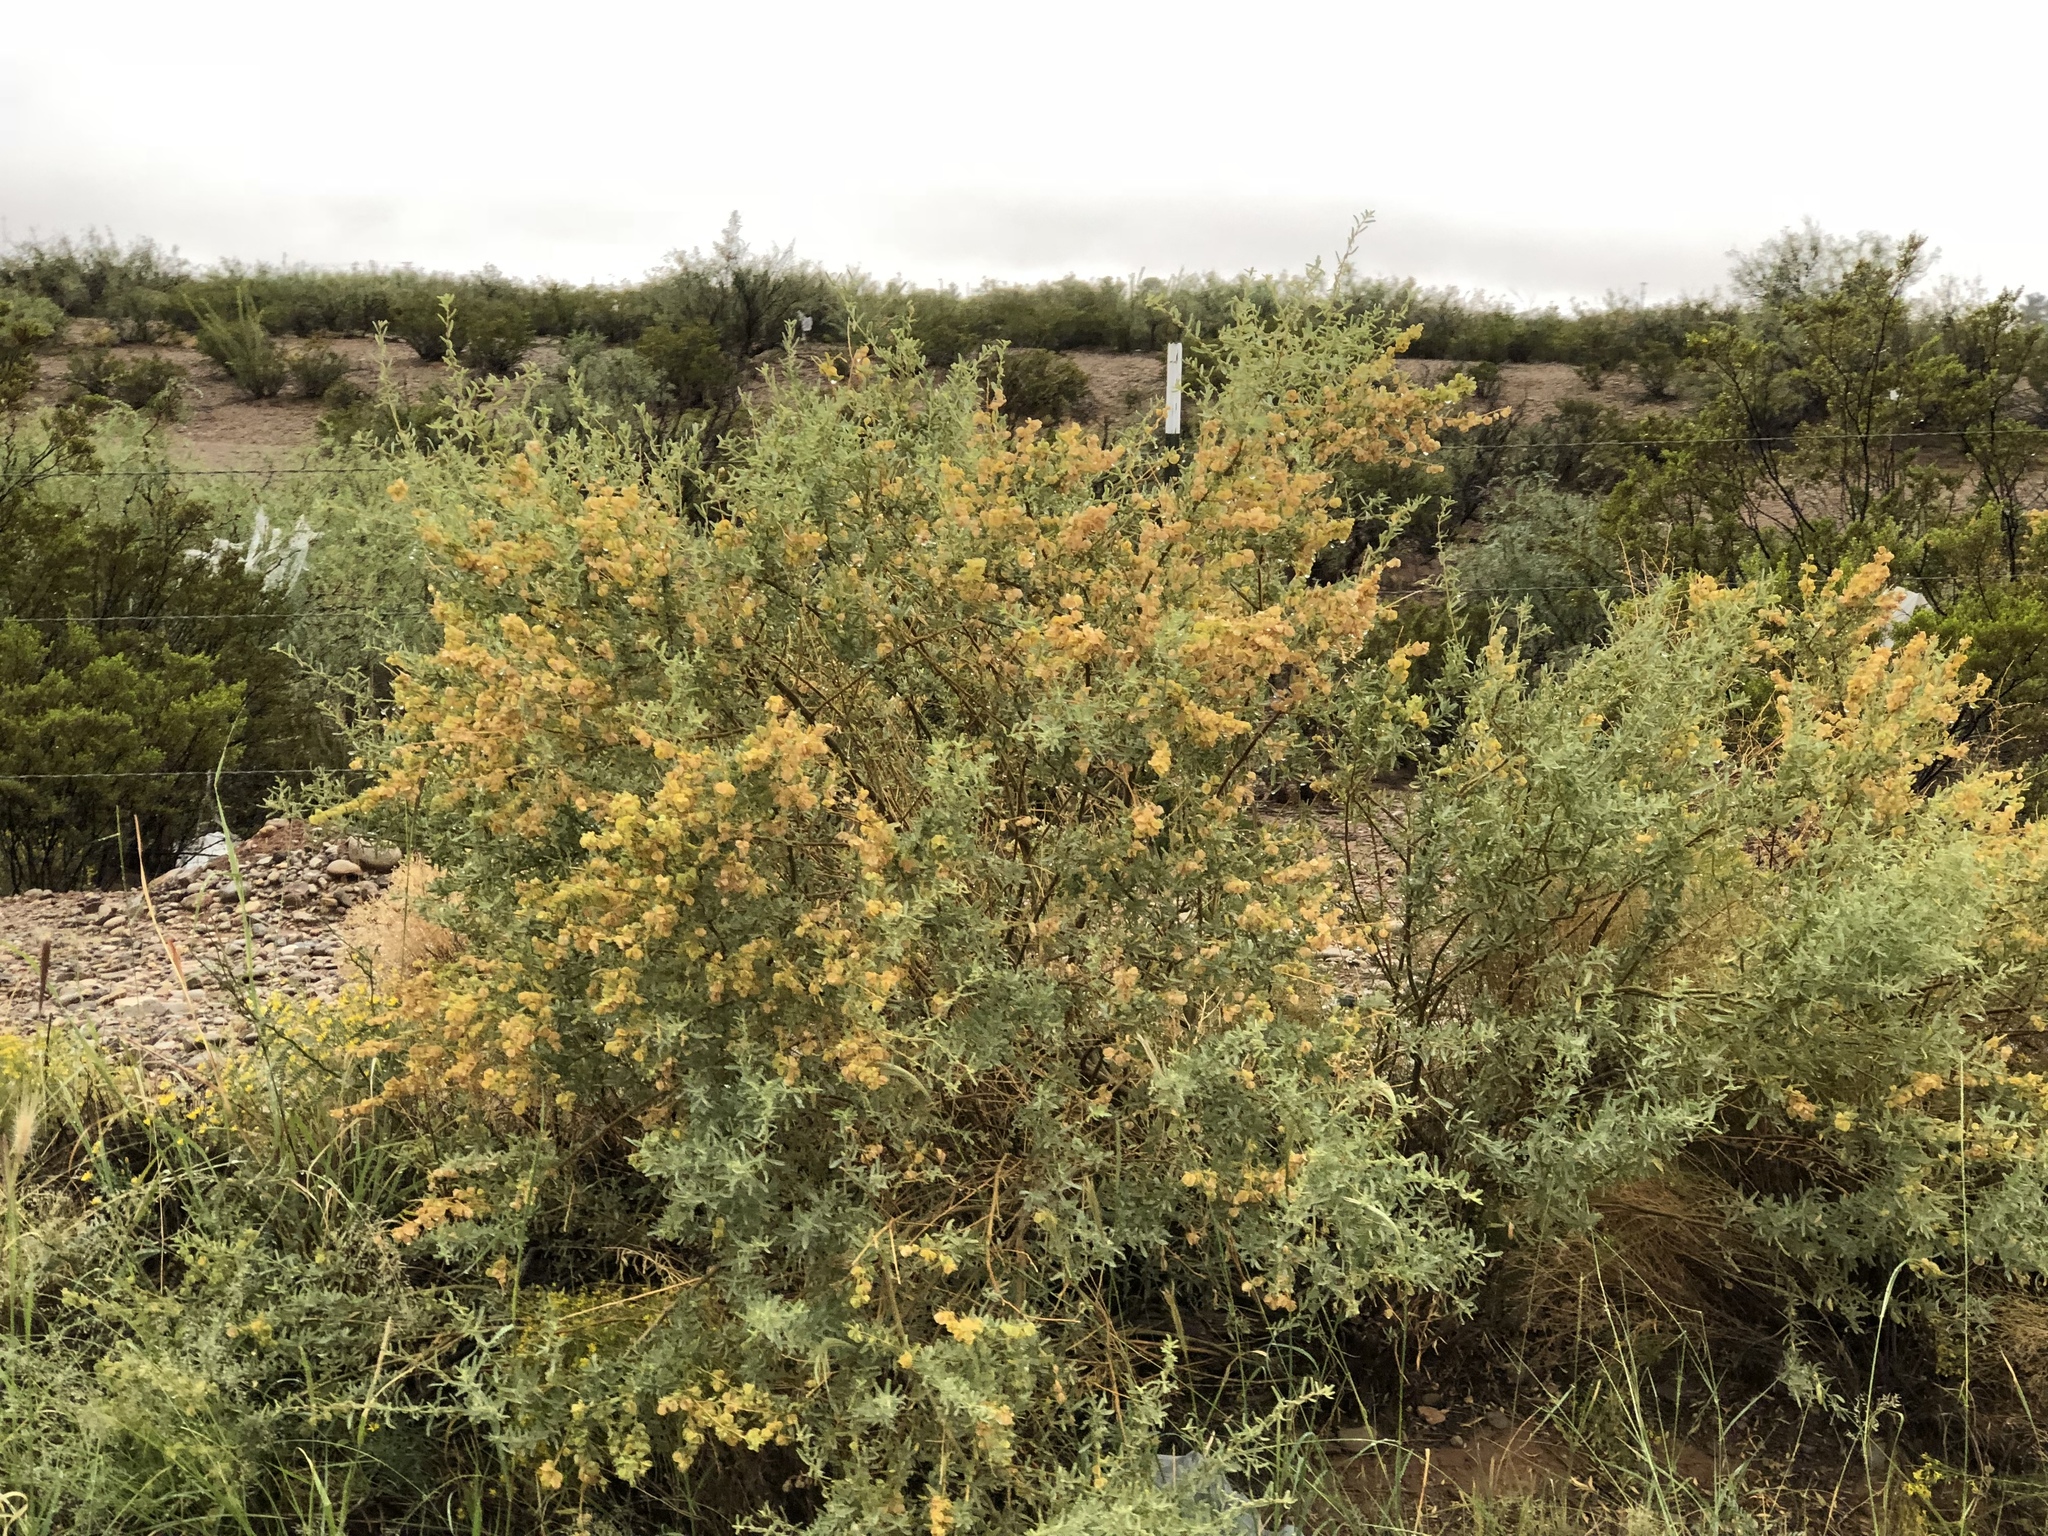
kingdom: Plantae
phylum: Tracheophyta
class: Magnoliopsida
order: Caryophyllales
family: Amaranthaceae
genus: Atriplex
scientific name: Atriplex canescens
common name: Four-wing saltbush
